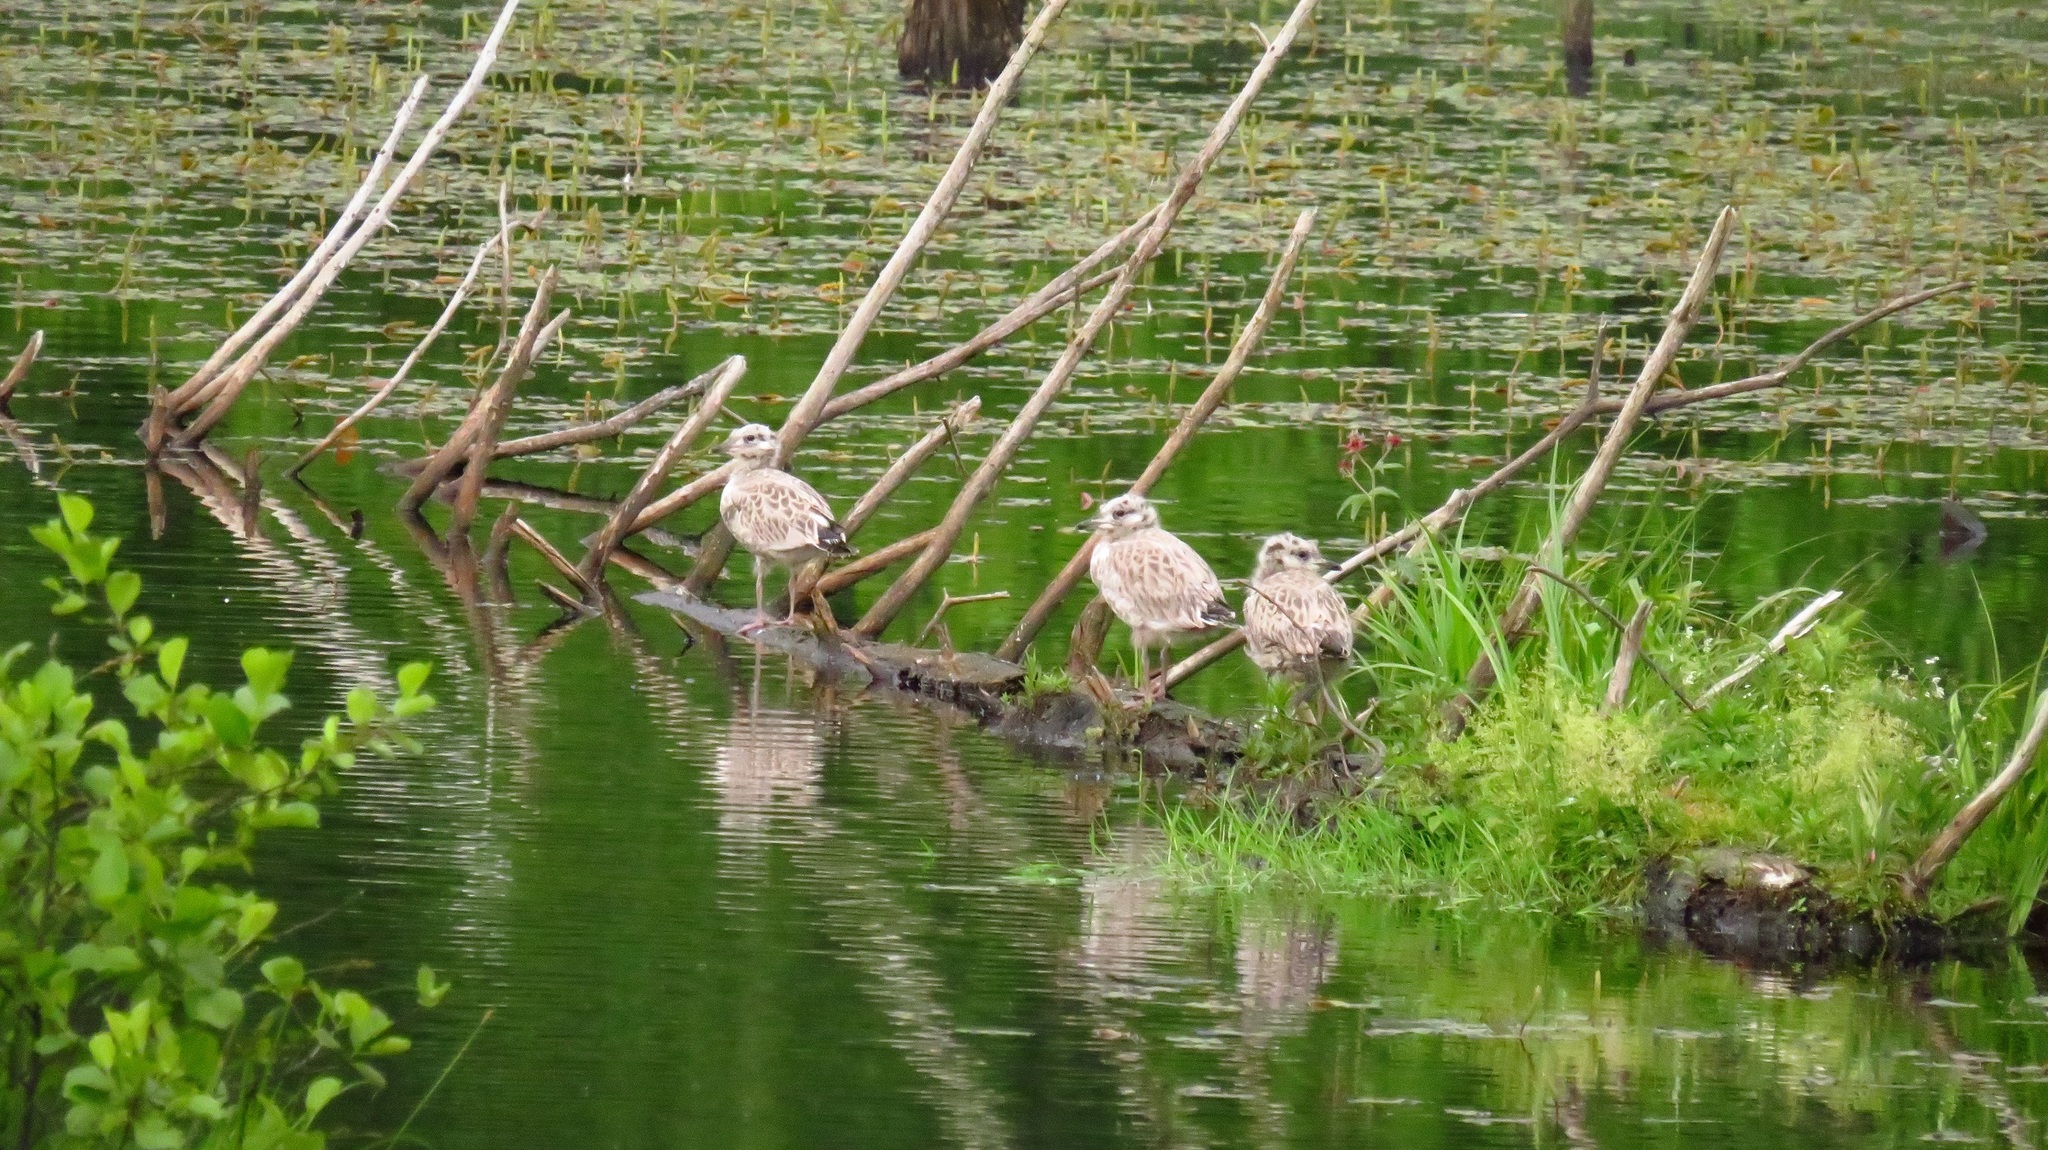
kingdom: Animalia
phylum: Chordata
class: Aves
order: Charadriiformes
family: Laridae
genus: Larus
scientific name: Larus canus
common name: Mew gull
